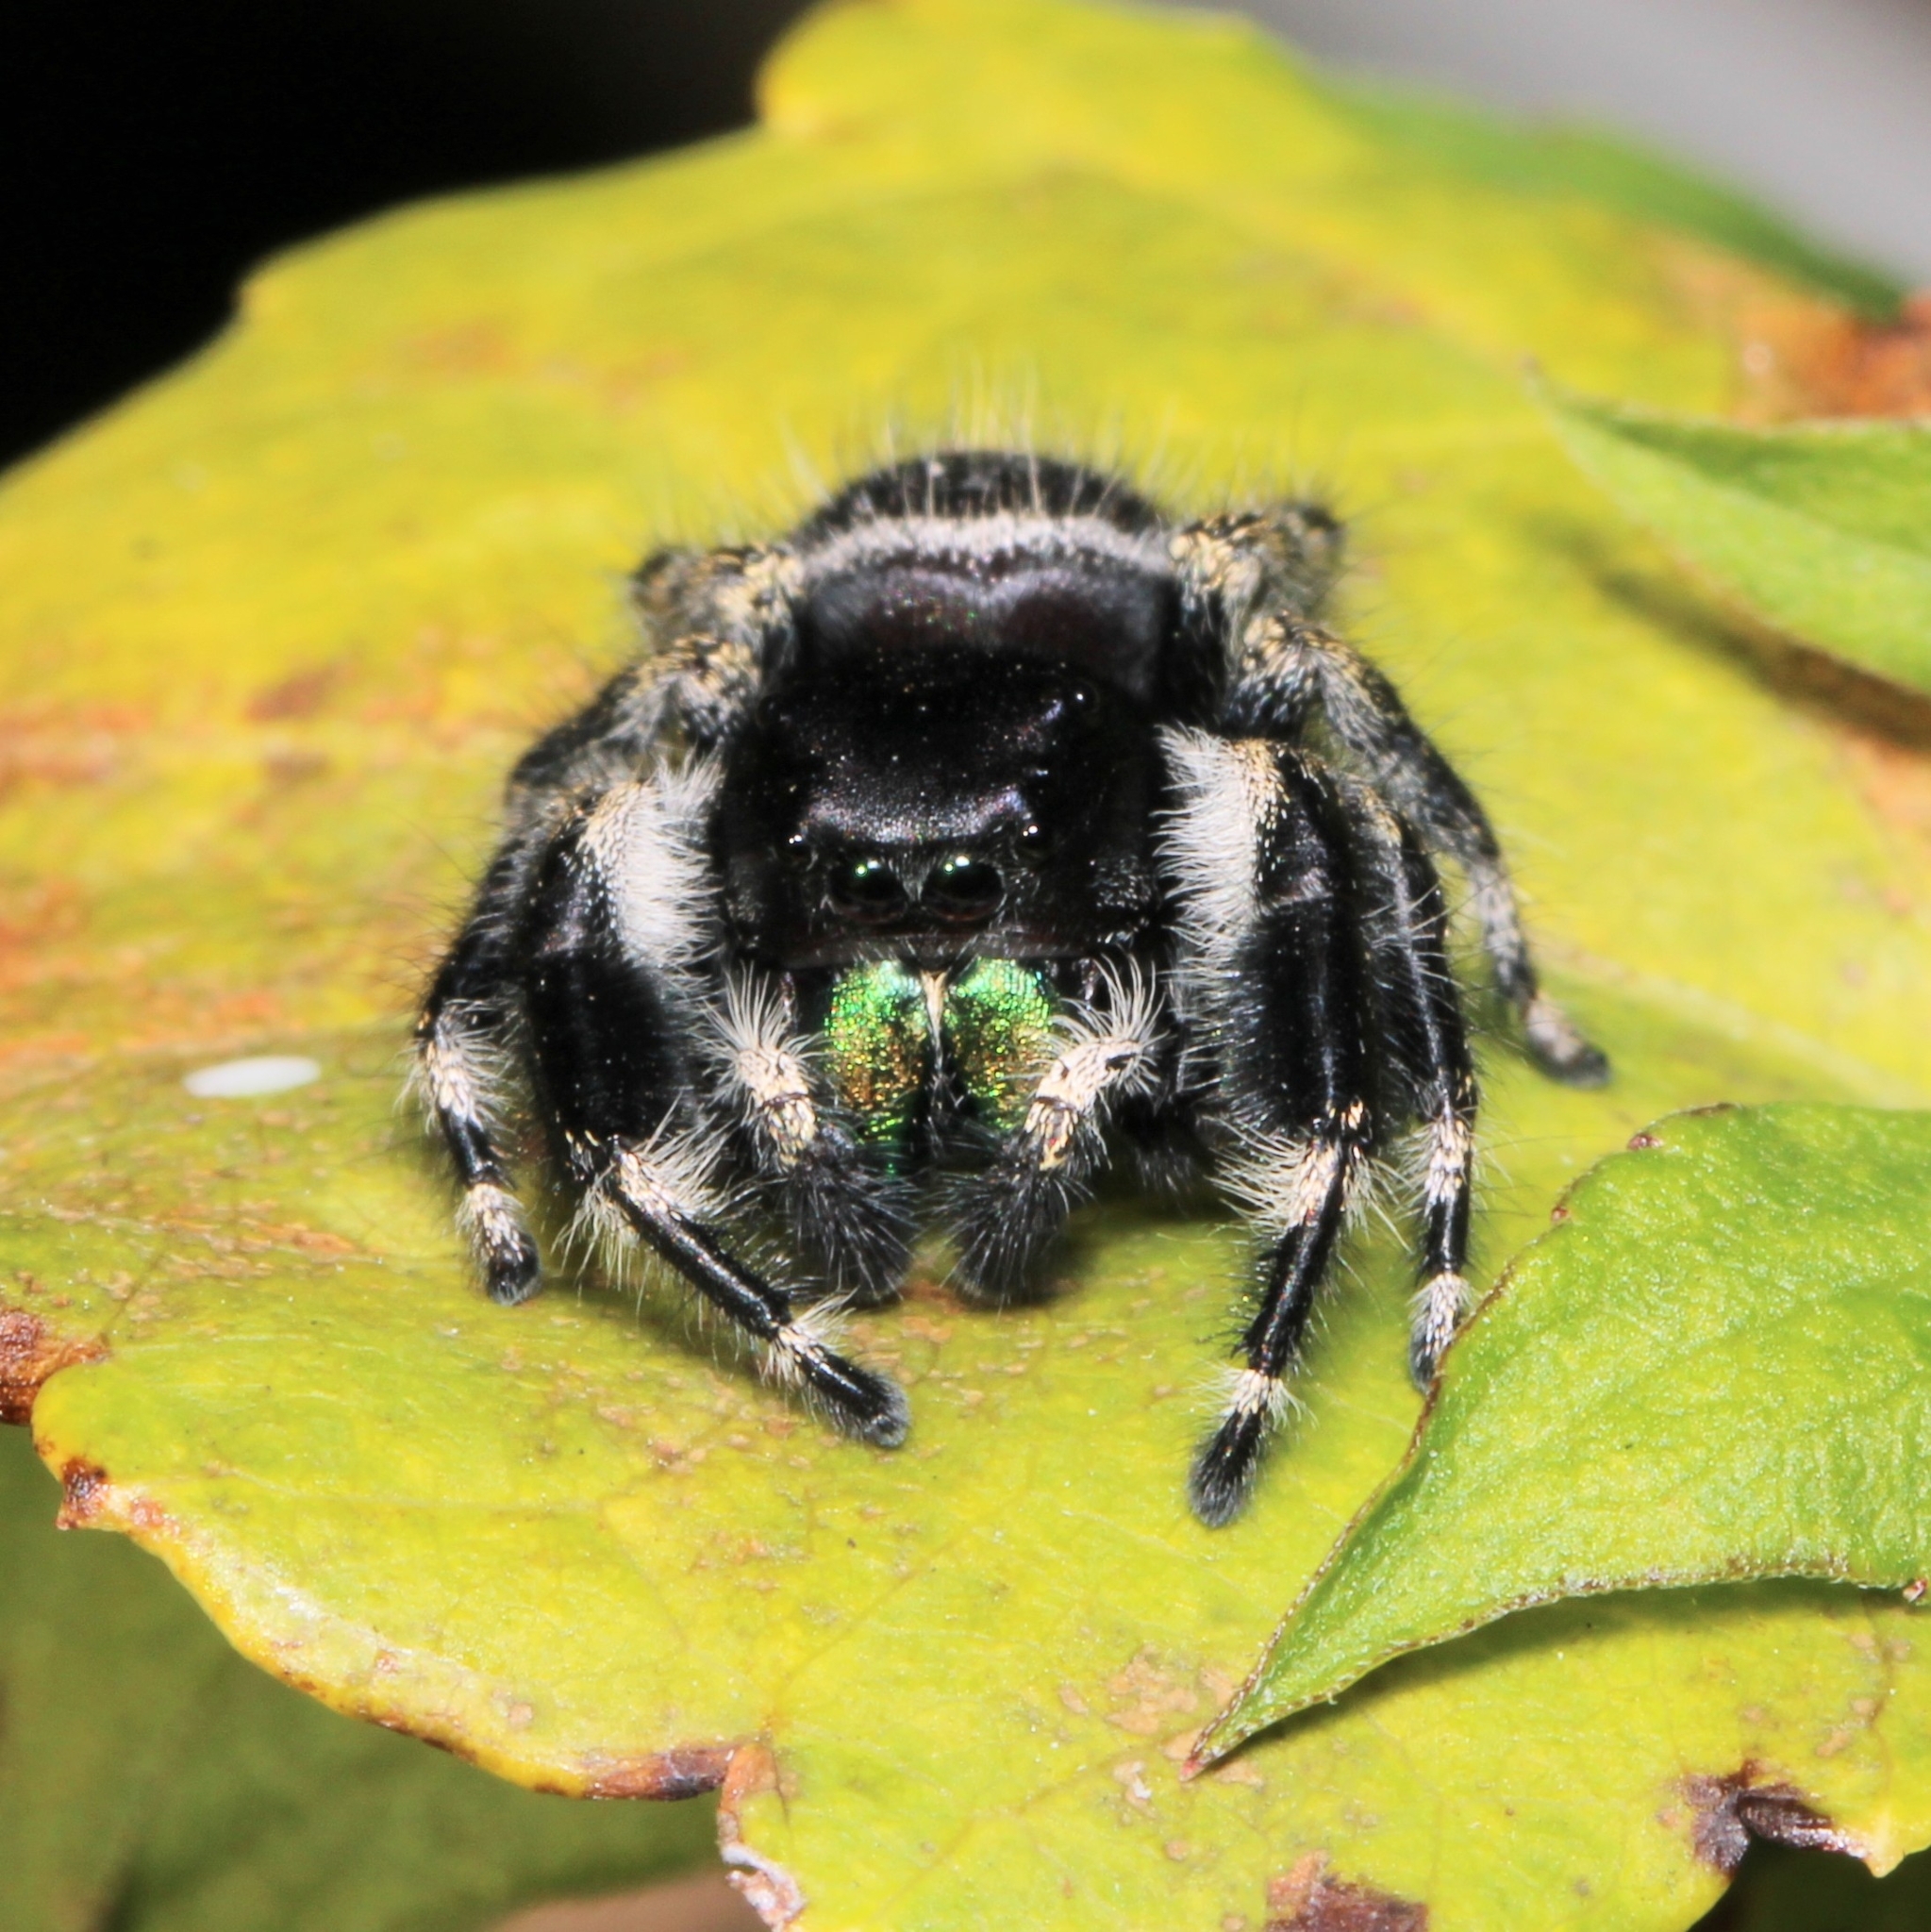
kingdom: Animalia
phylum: Arthropoda
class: Arachnida
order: Araneae
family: Salticidae
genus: Phidippus
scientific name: Phidippus audax
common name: Bold jumper
